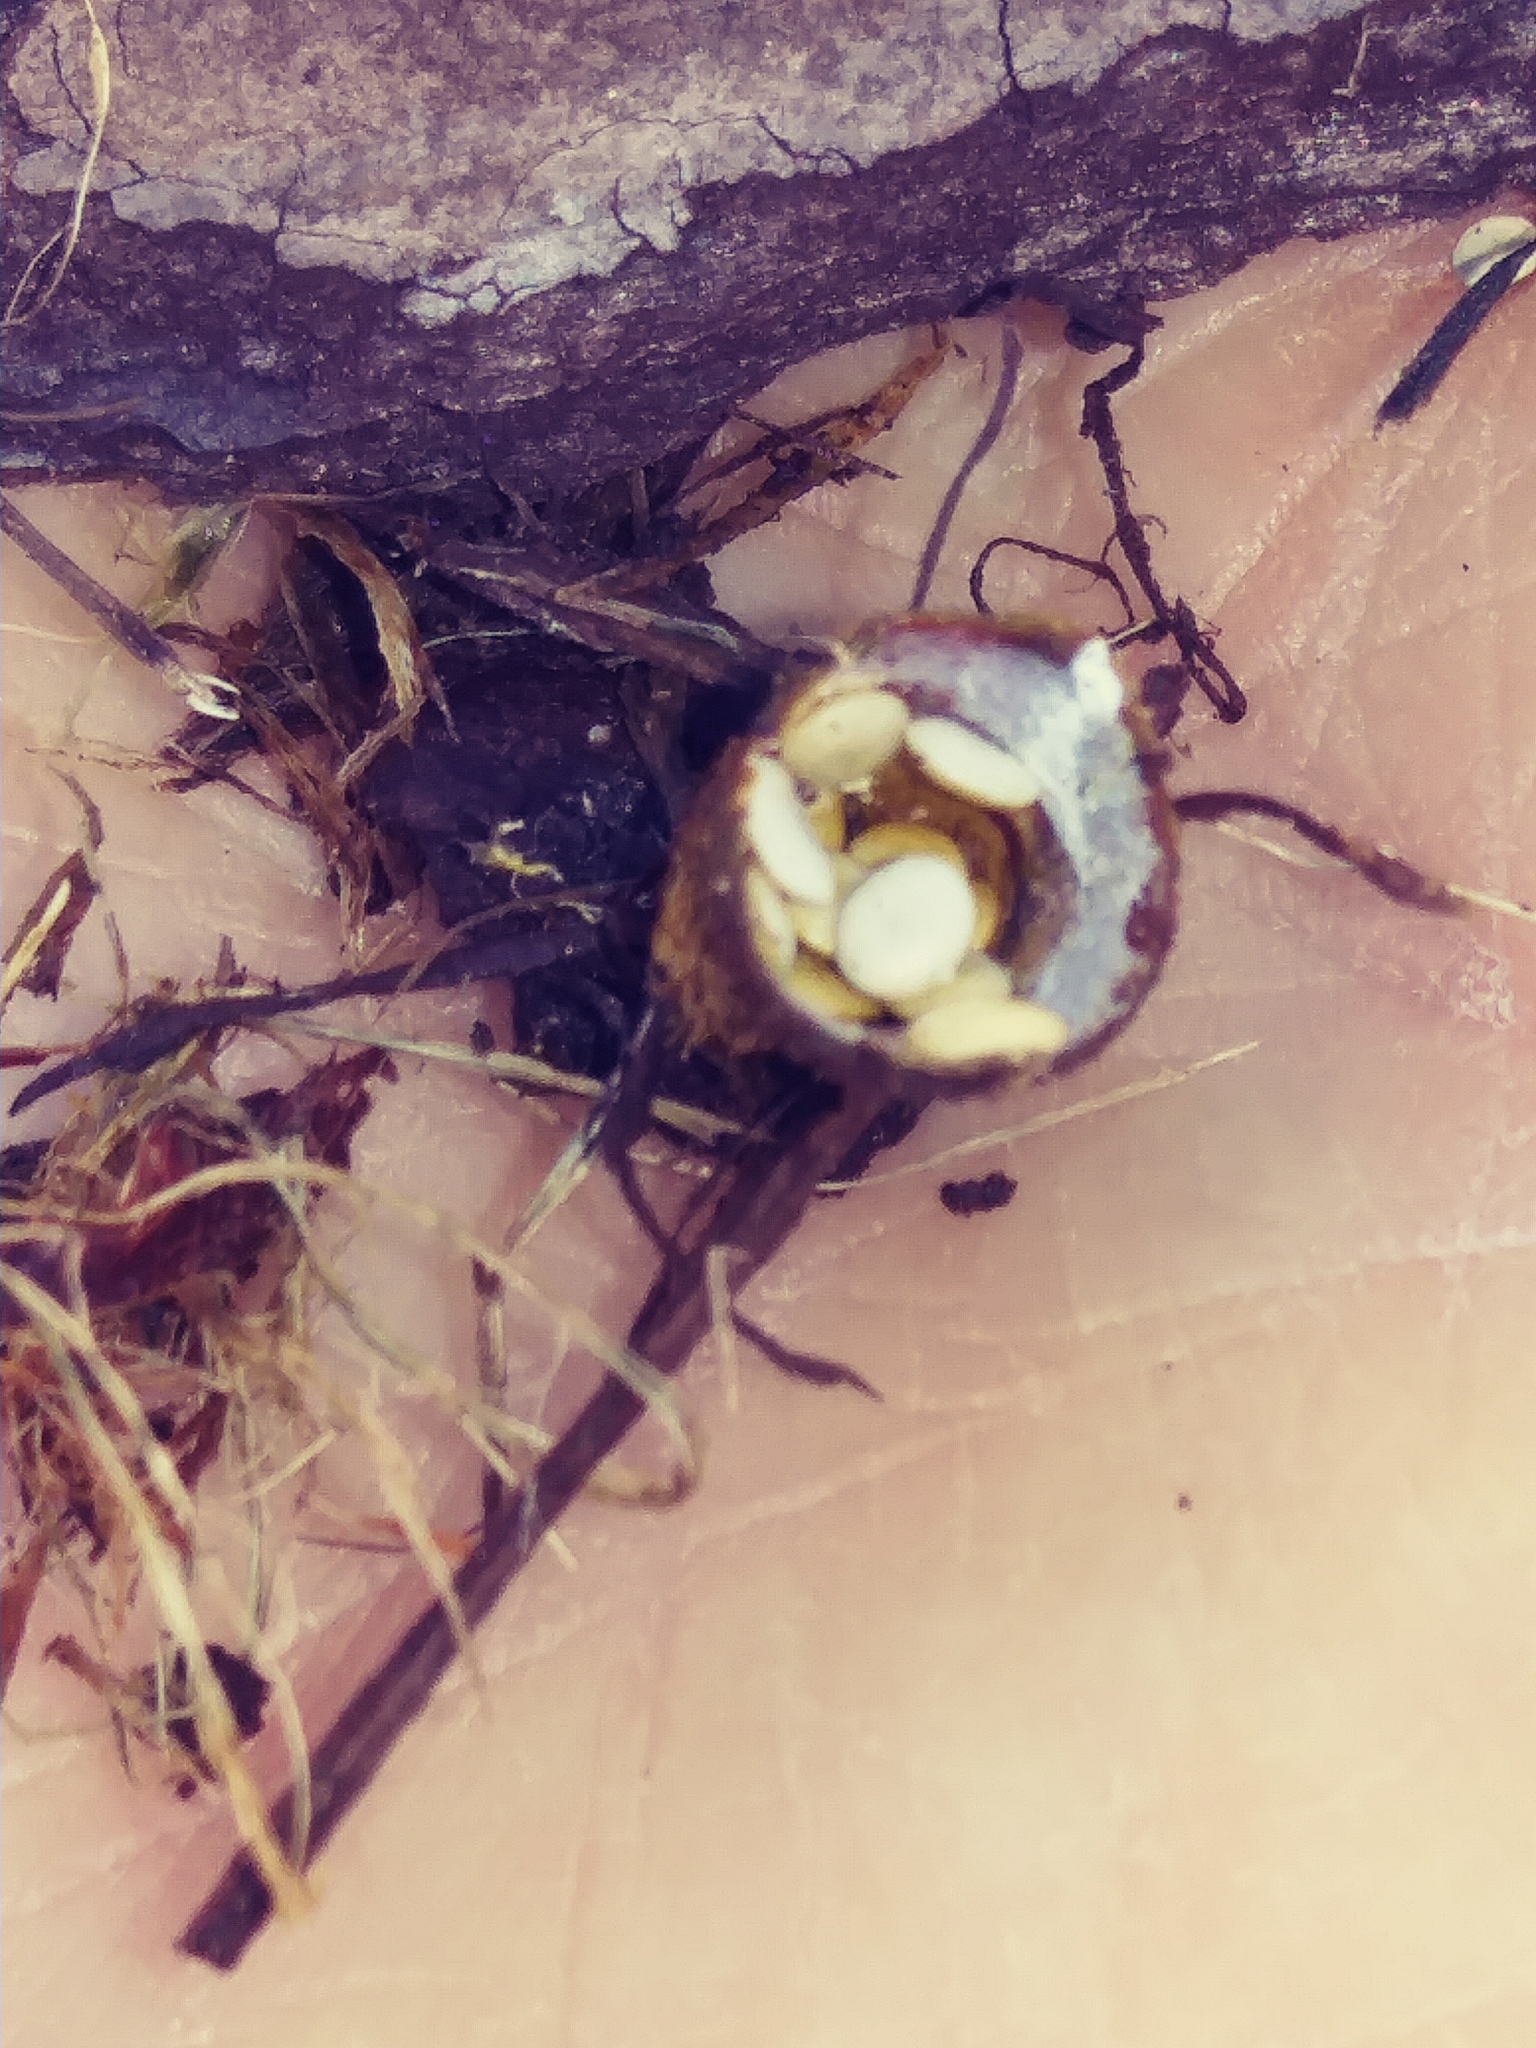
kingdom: Fungi
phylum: Basidiomycota
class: Agaricomycetes
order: Agaricales
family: Nidulariaceae
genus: Crucibulum
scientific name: Crucibulum laeve
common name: Common bird's nest
